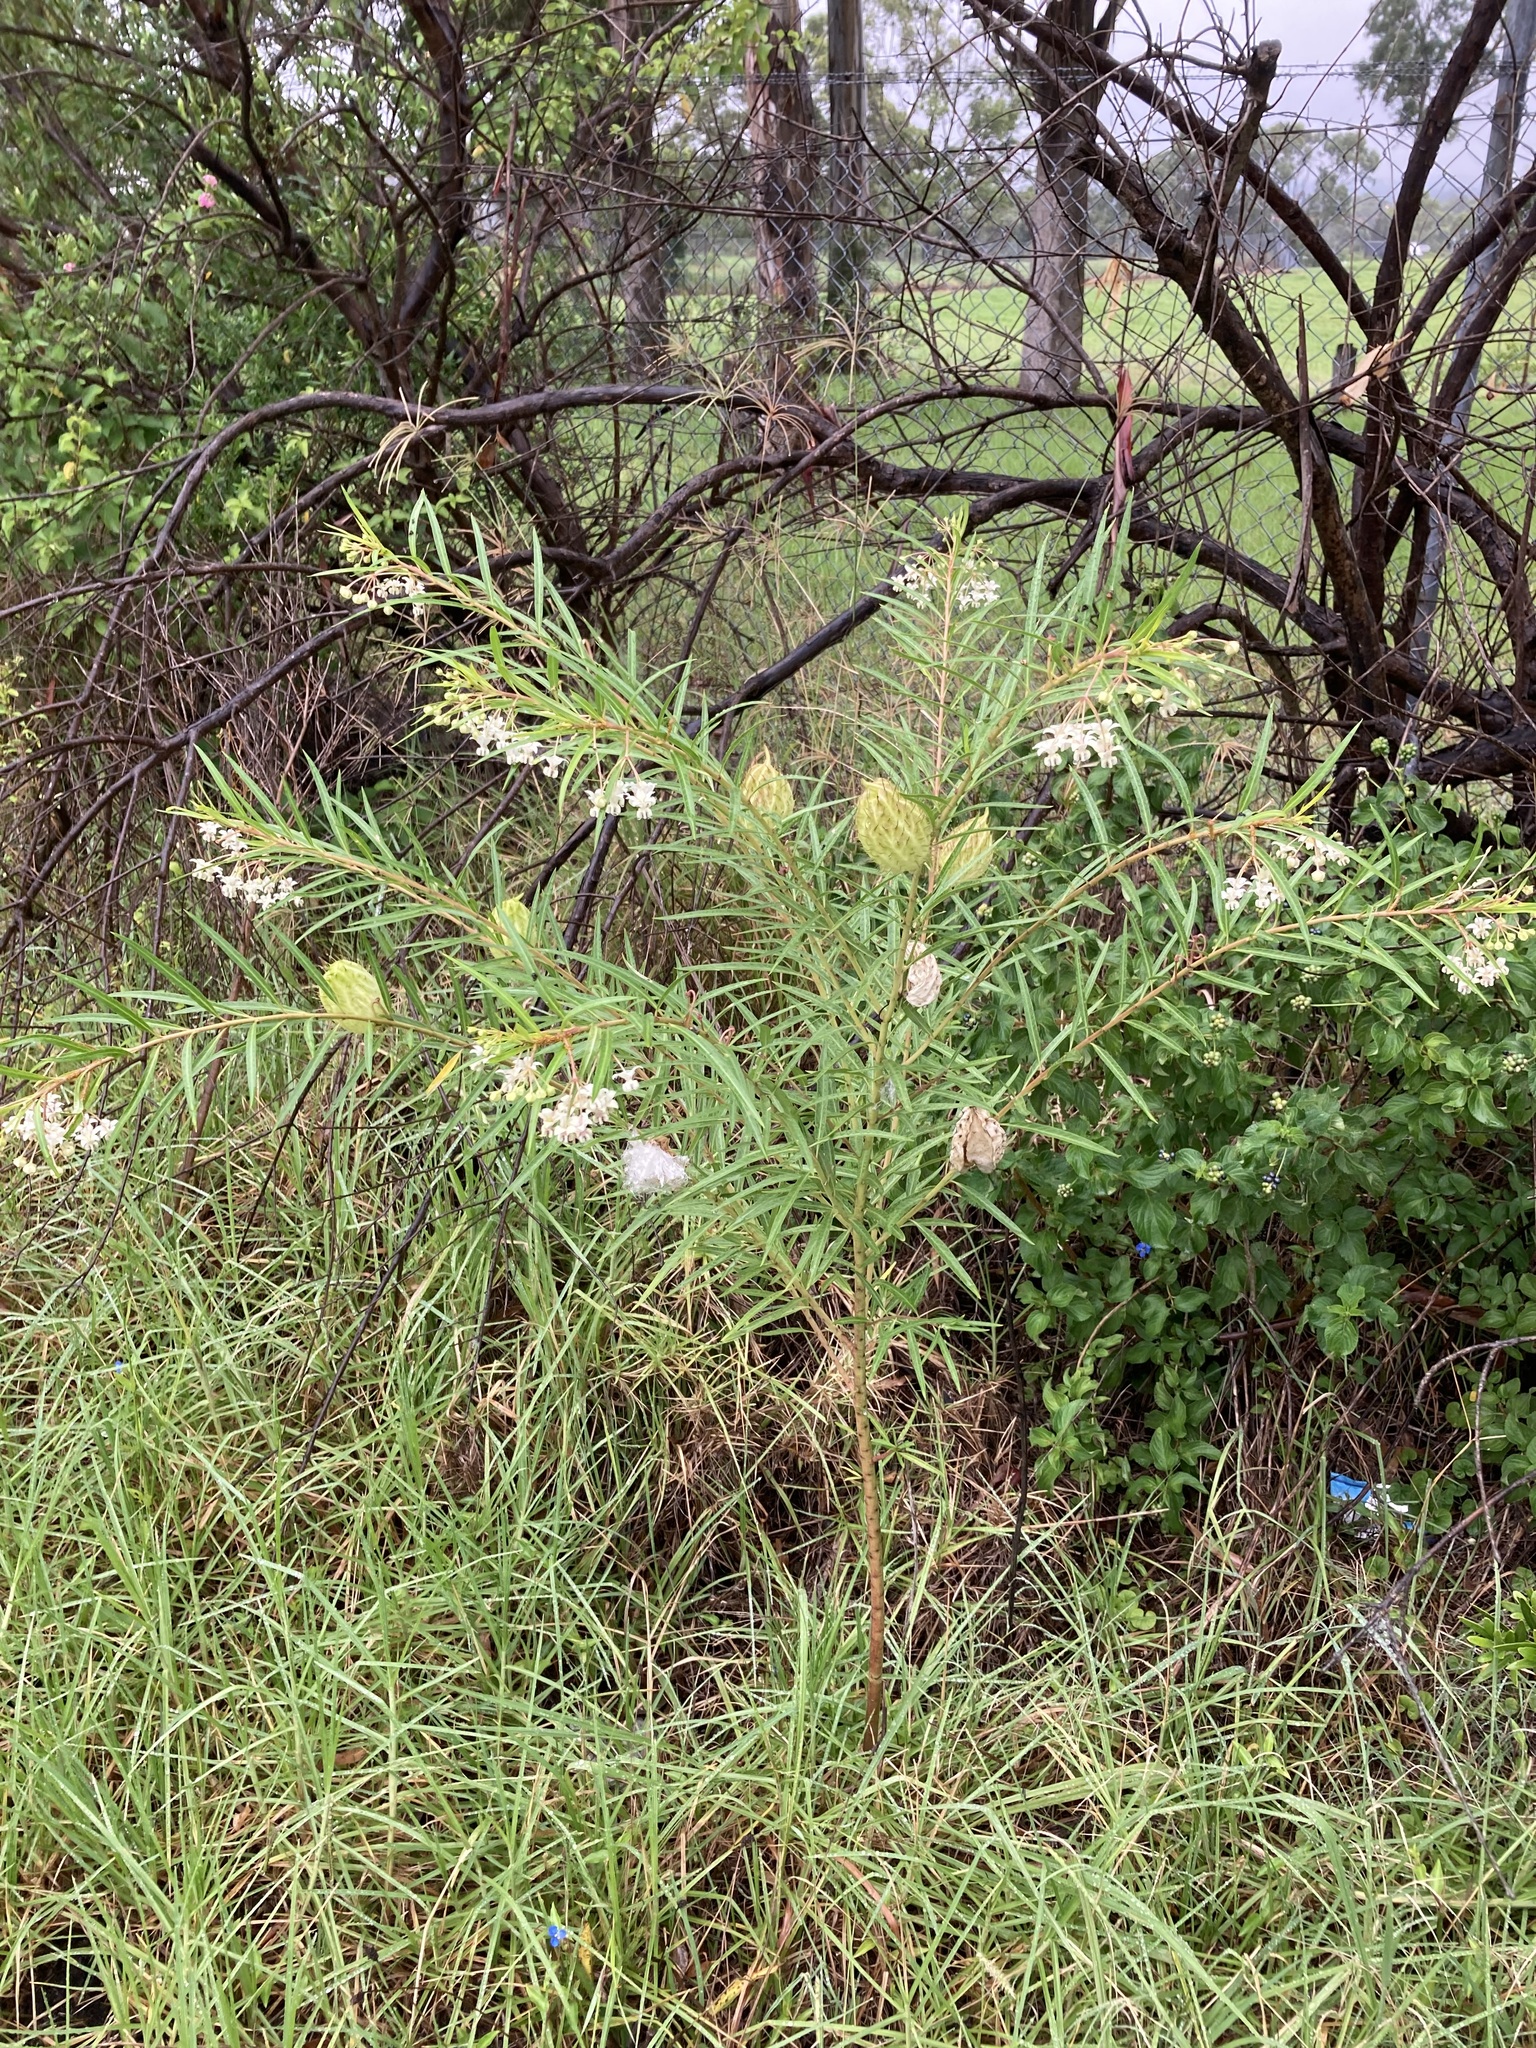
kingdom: Plantae
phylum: Tracheophyta
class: Magnoliopsida
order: Gentianales
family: Apocynaceae
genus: Gomphocarpus
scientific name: Gomphocarpus fruticosus
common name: Milkweed
